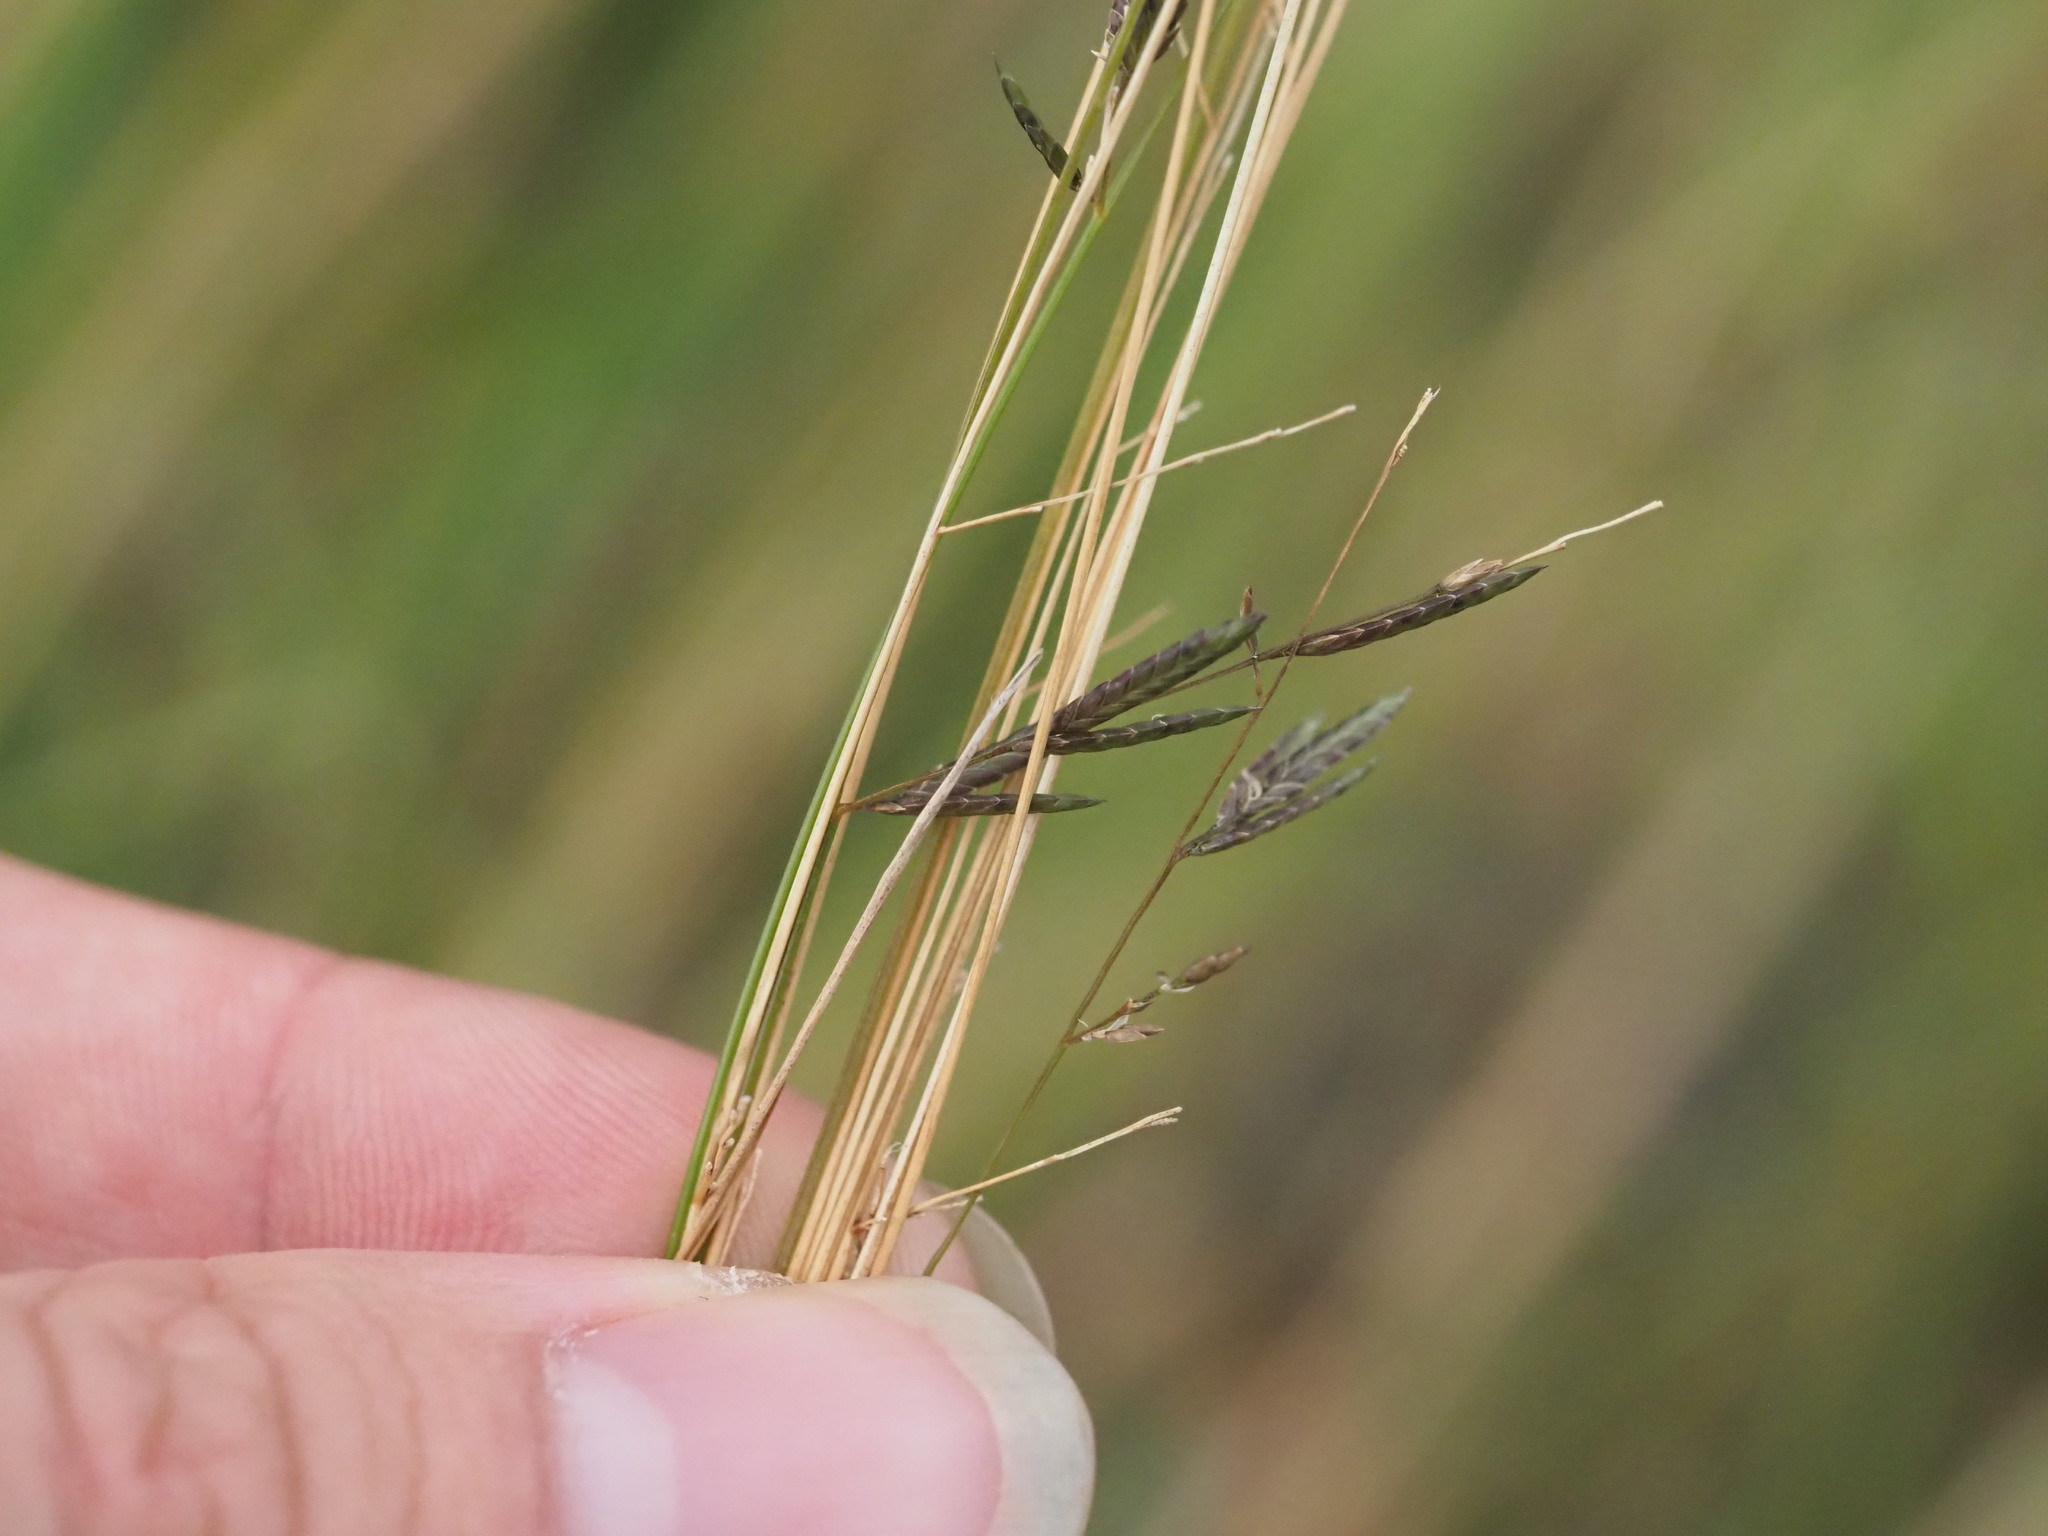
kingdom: Plantae
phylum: Tracheophyta
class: Liliopsida
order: Poales
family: Poaceae
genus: Eragrostis
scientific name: Eragrostis brownii
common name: Lovegrass
